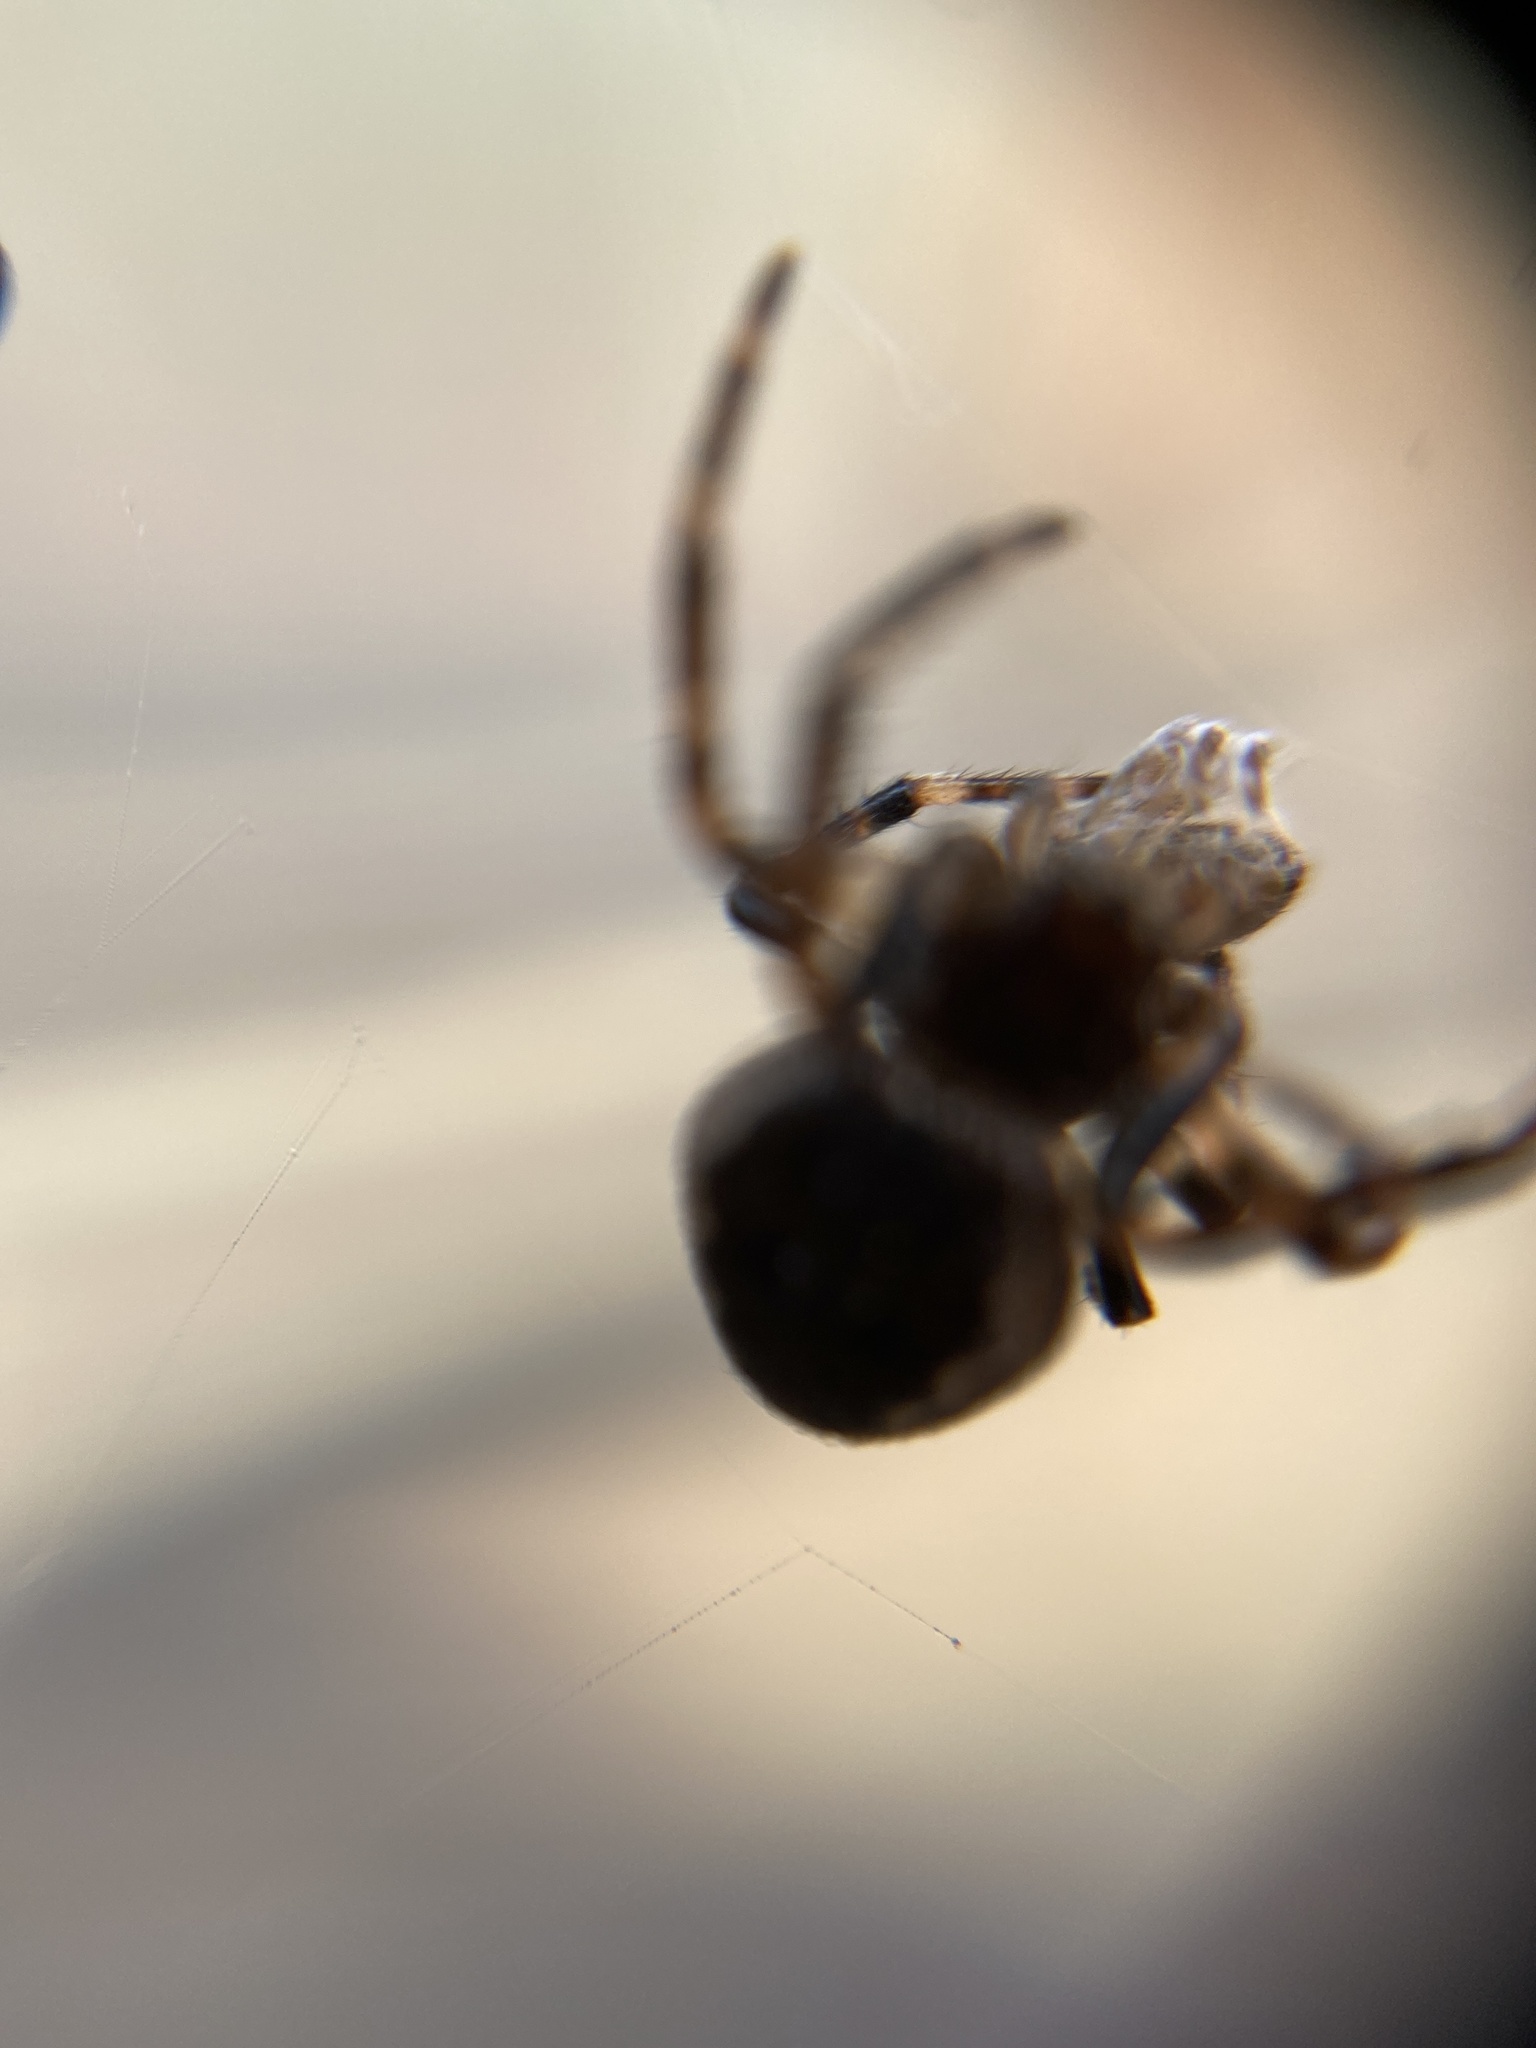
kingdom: Animalia
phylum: Arthropoda
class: Arachnida
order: Araneae
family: Araneidae
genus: Nuctenea
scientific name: Nuctenea umbratica
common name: Toad spider
